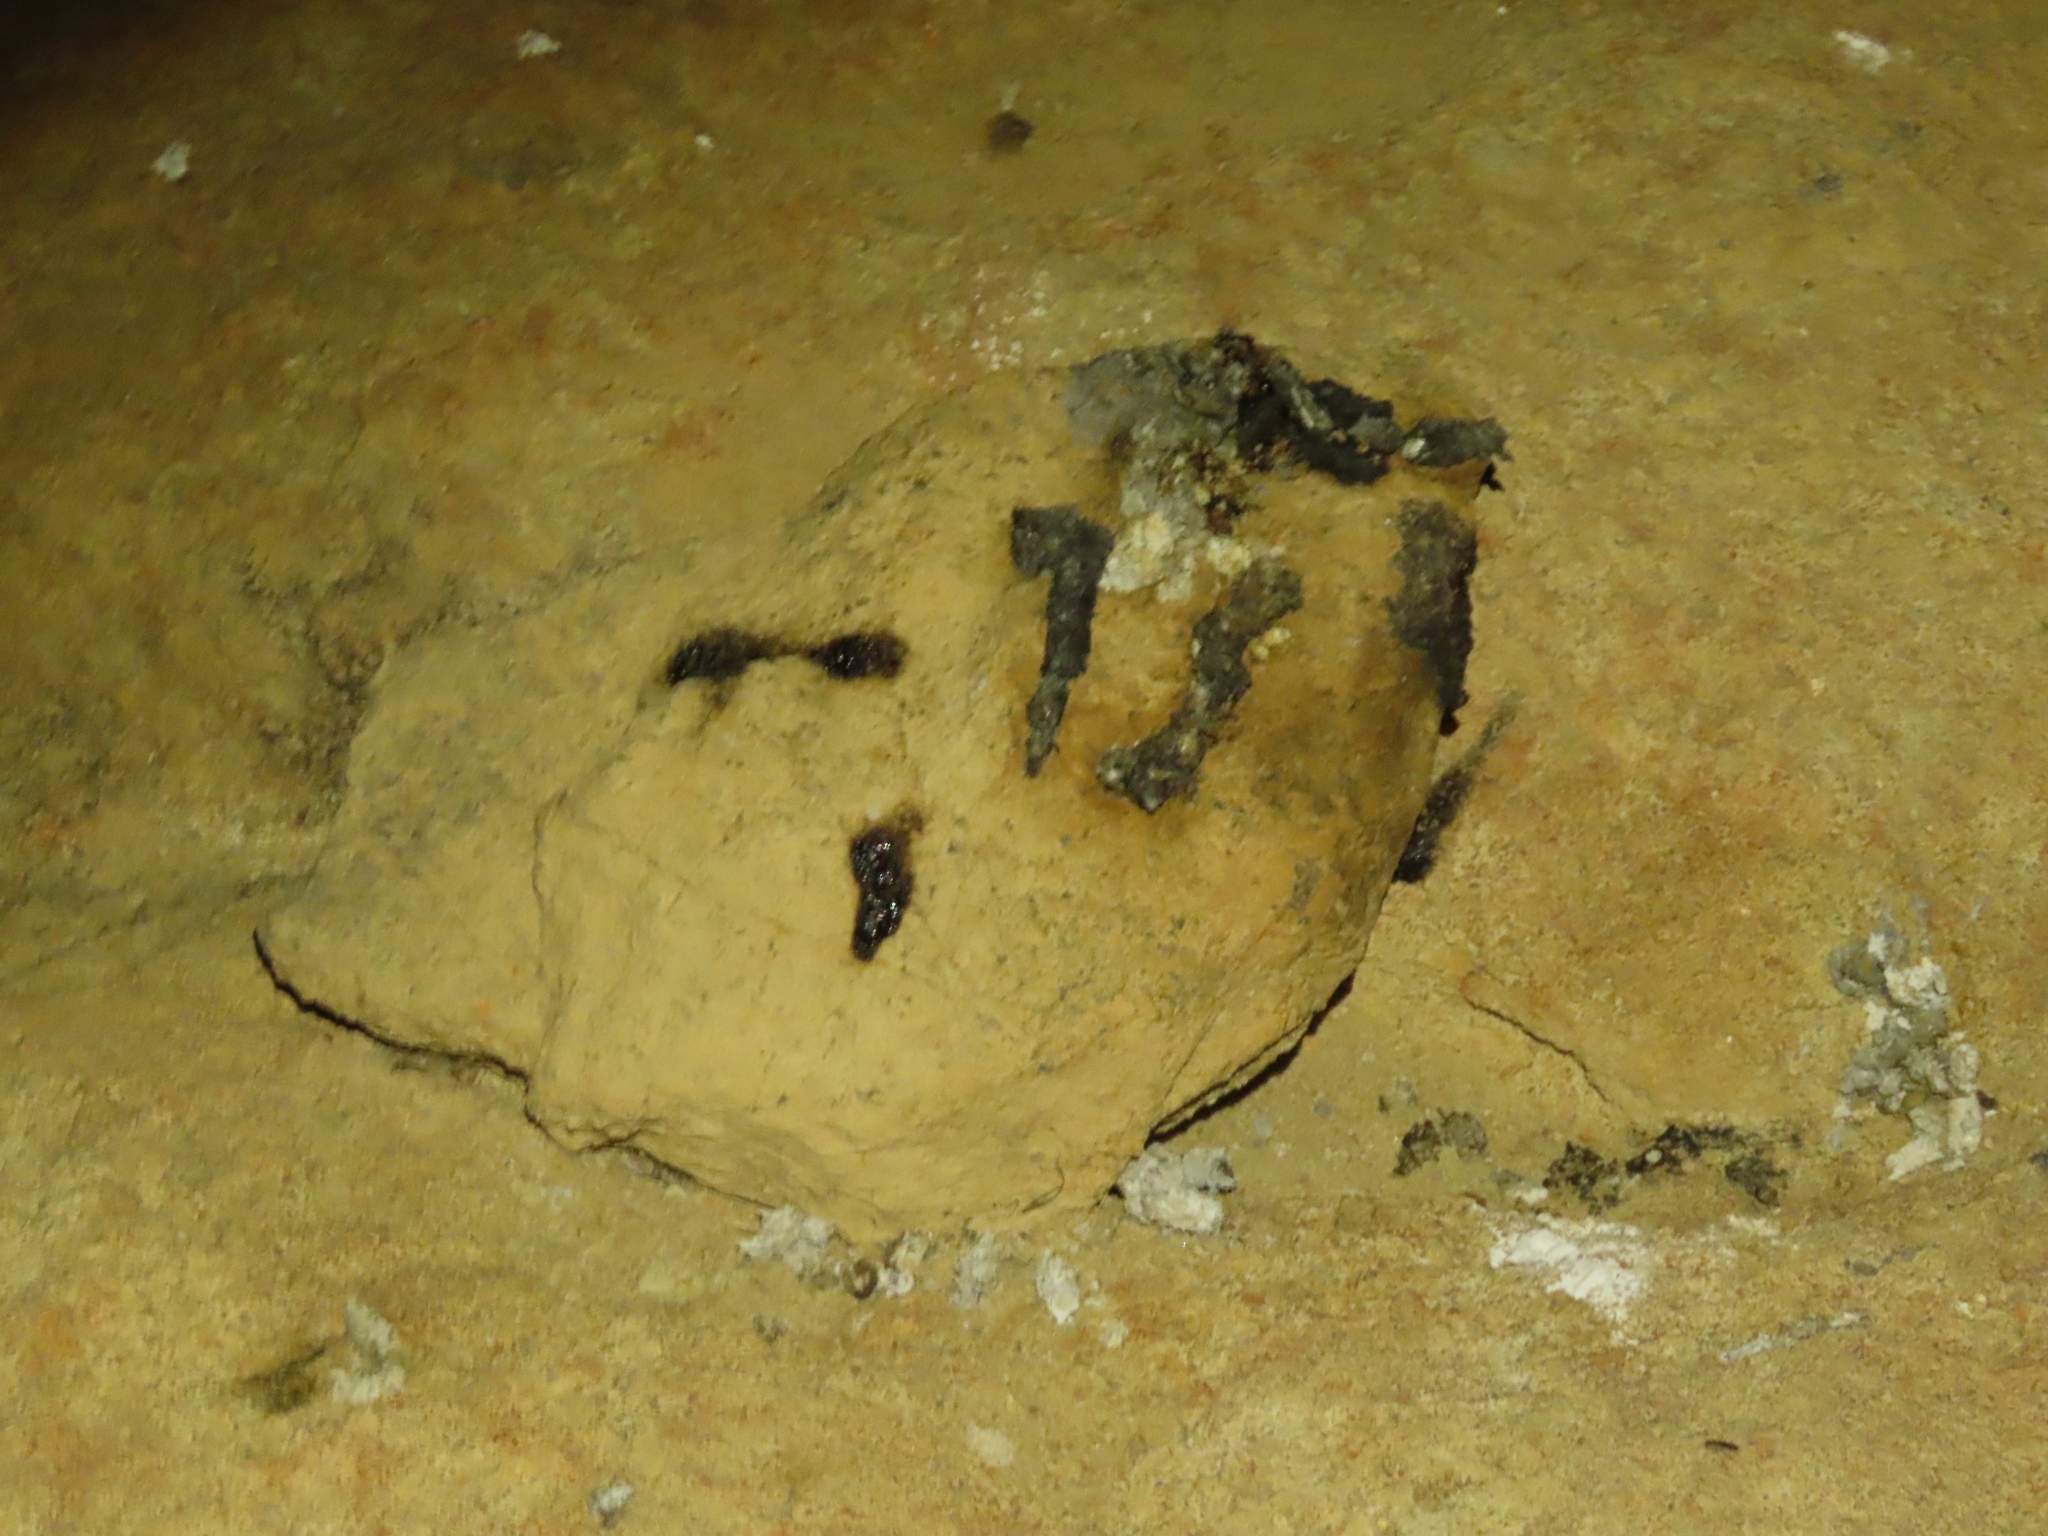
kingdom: Animalia
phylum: Chordata
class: Mammalia
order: Carnivora
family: Mustelidae
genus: Lutra
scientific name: Lutra lutra
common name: European otter
